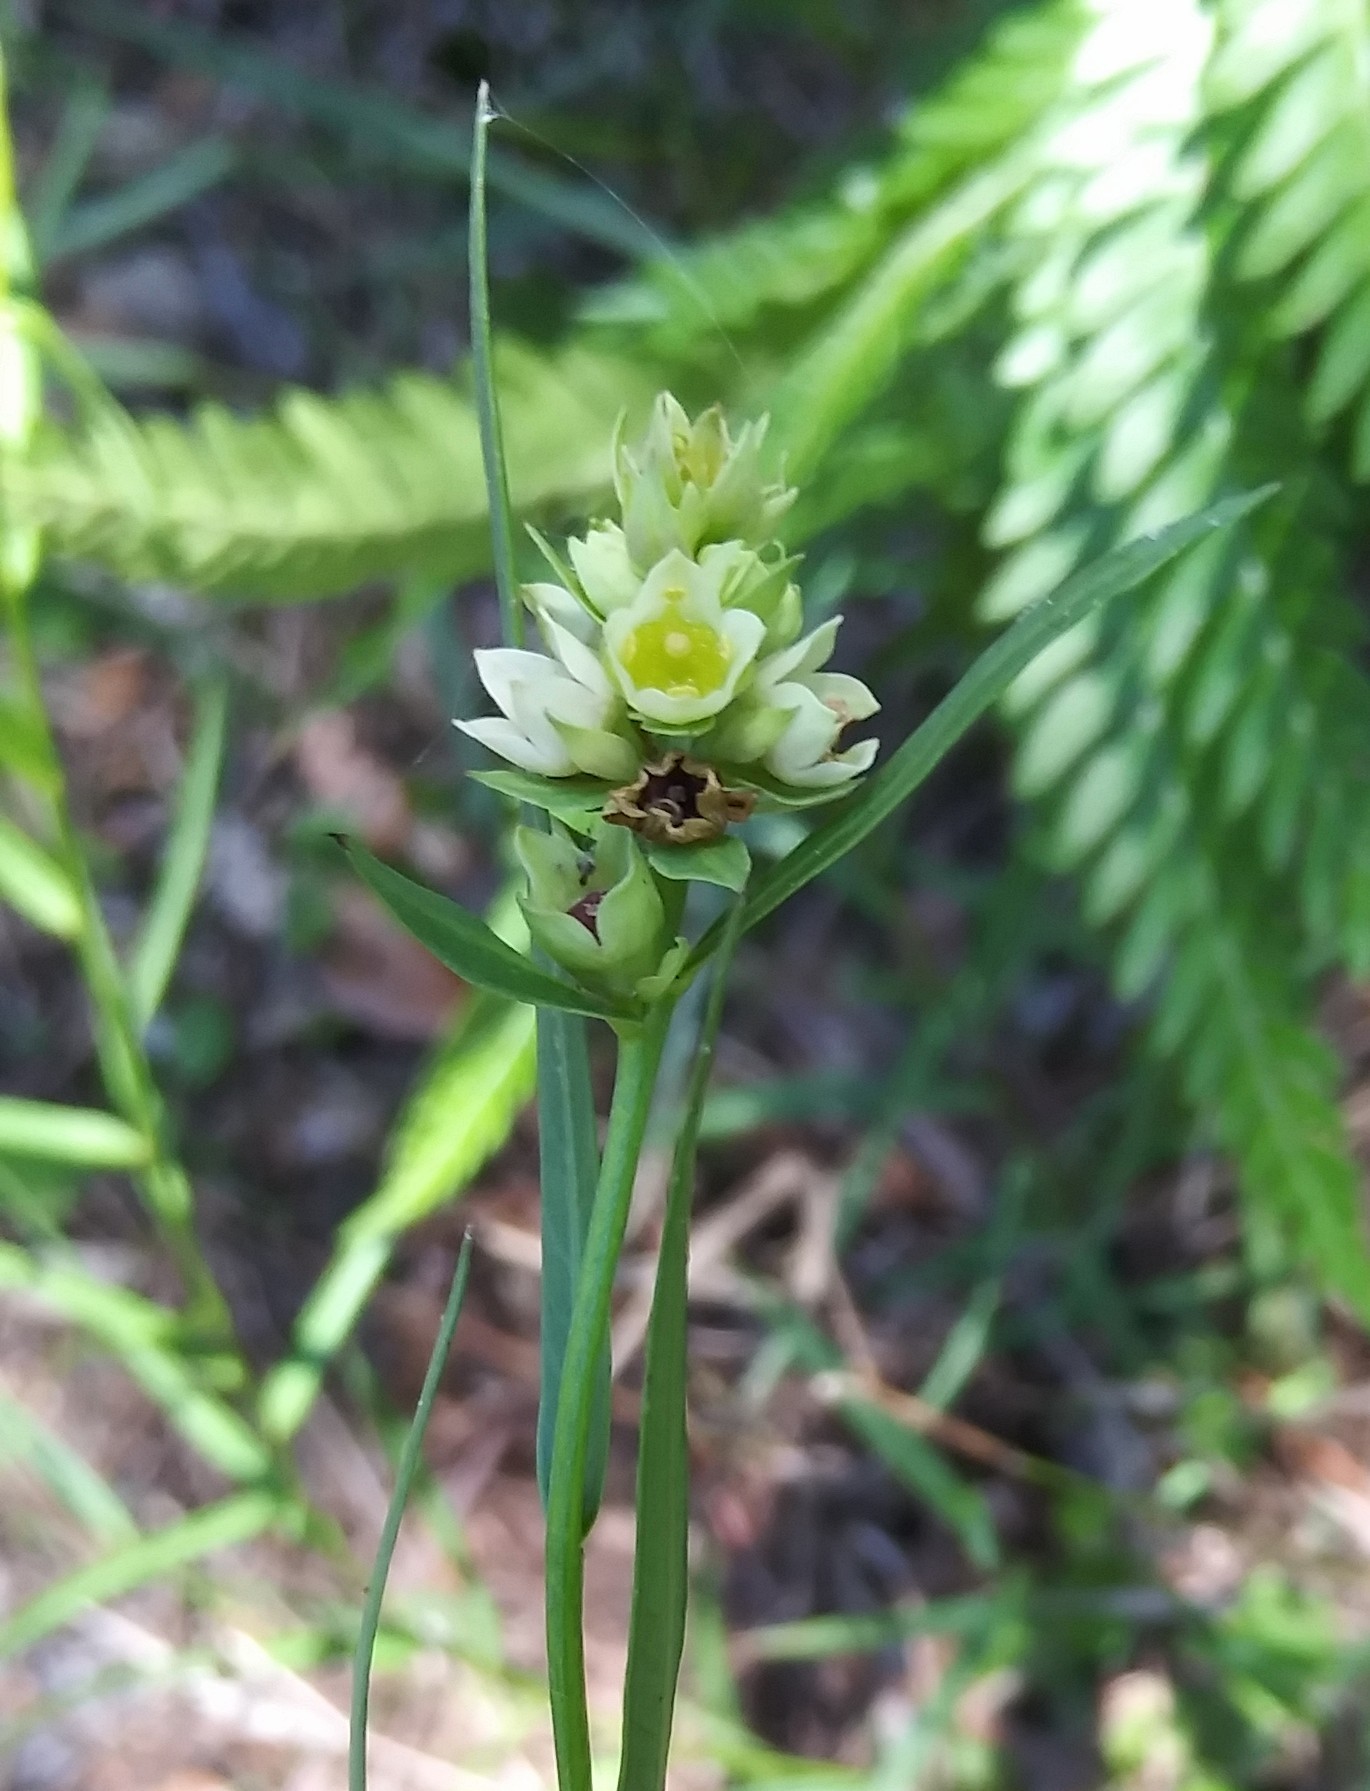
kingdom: Plantae
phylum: Tracheophyta
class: Magnoliopsida
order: Myrtales
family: Onagraceae
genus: Ludwigia
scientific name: Ludwigia suffruticosa
